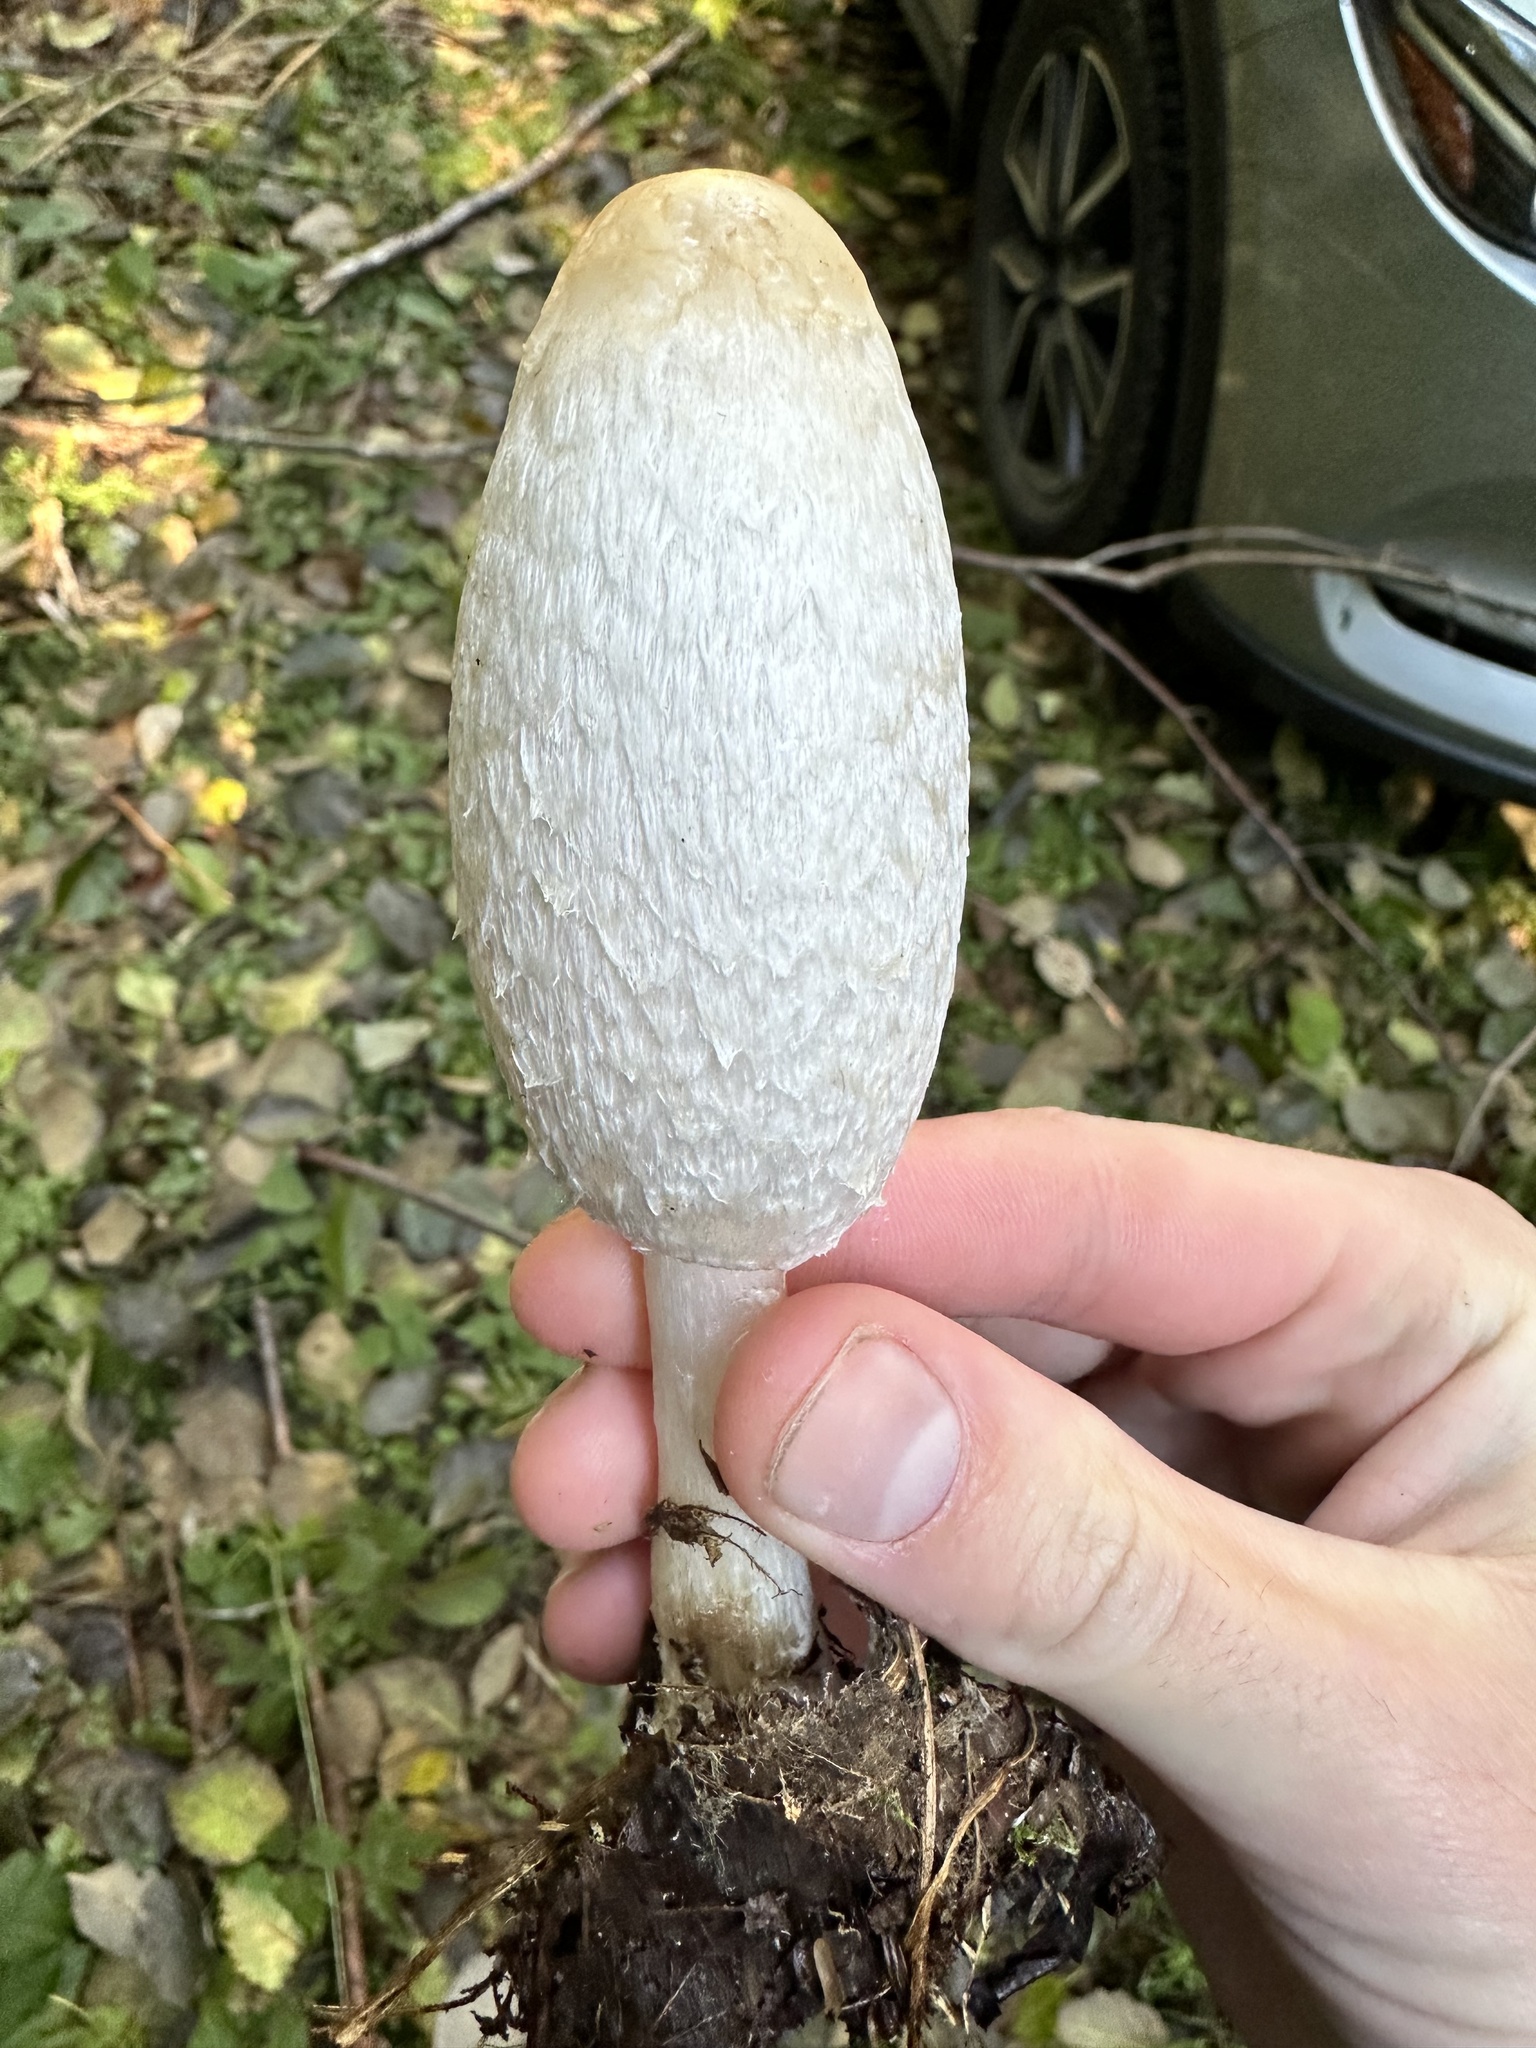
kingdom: Fungi
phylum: Basidiomycota
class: Agaricomycetes
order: Agaricales
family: Agaricaceae
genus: Coprinus
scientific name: Coprinus comatus
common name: Lawyer's wig
